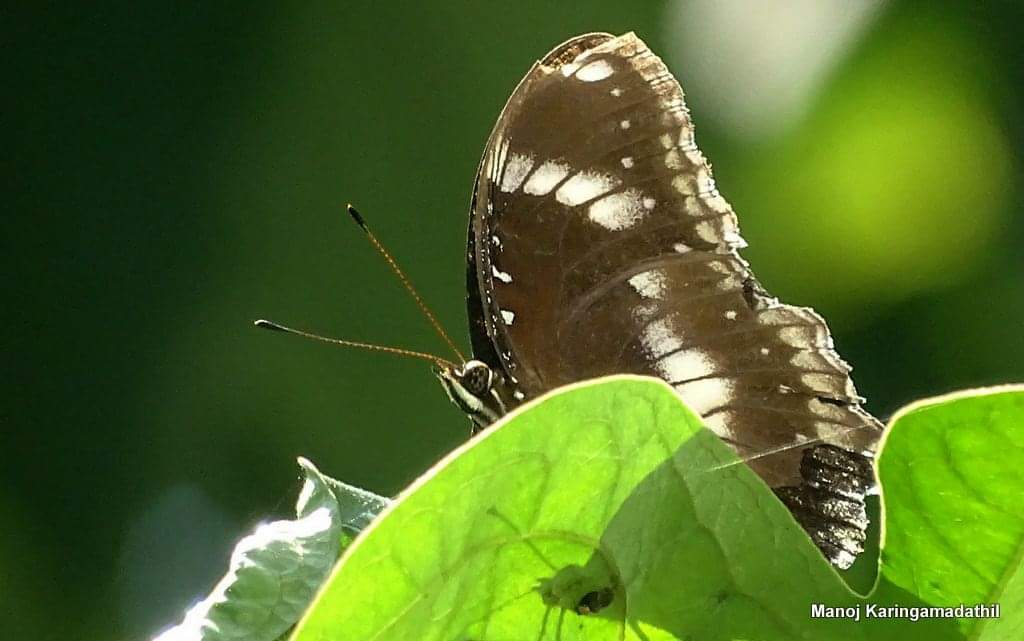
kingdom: Animalia
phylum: Arthropoda
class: Insecta
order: Lepidoptera
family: Nymphalidae
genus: Hypolimnas
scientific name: Hypolimnas bolina
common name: Great eggfly
